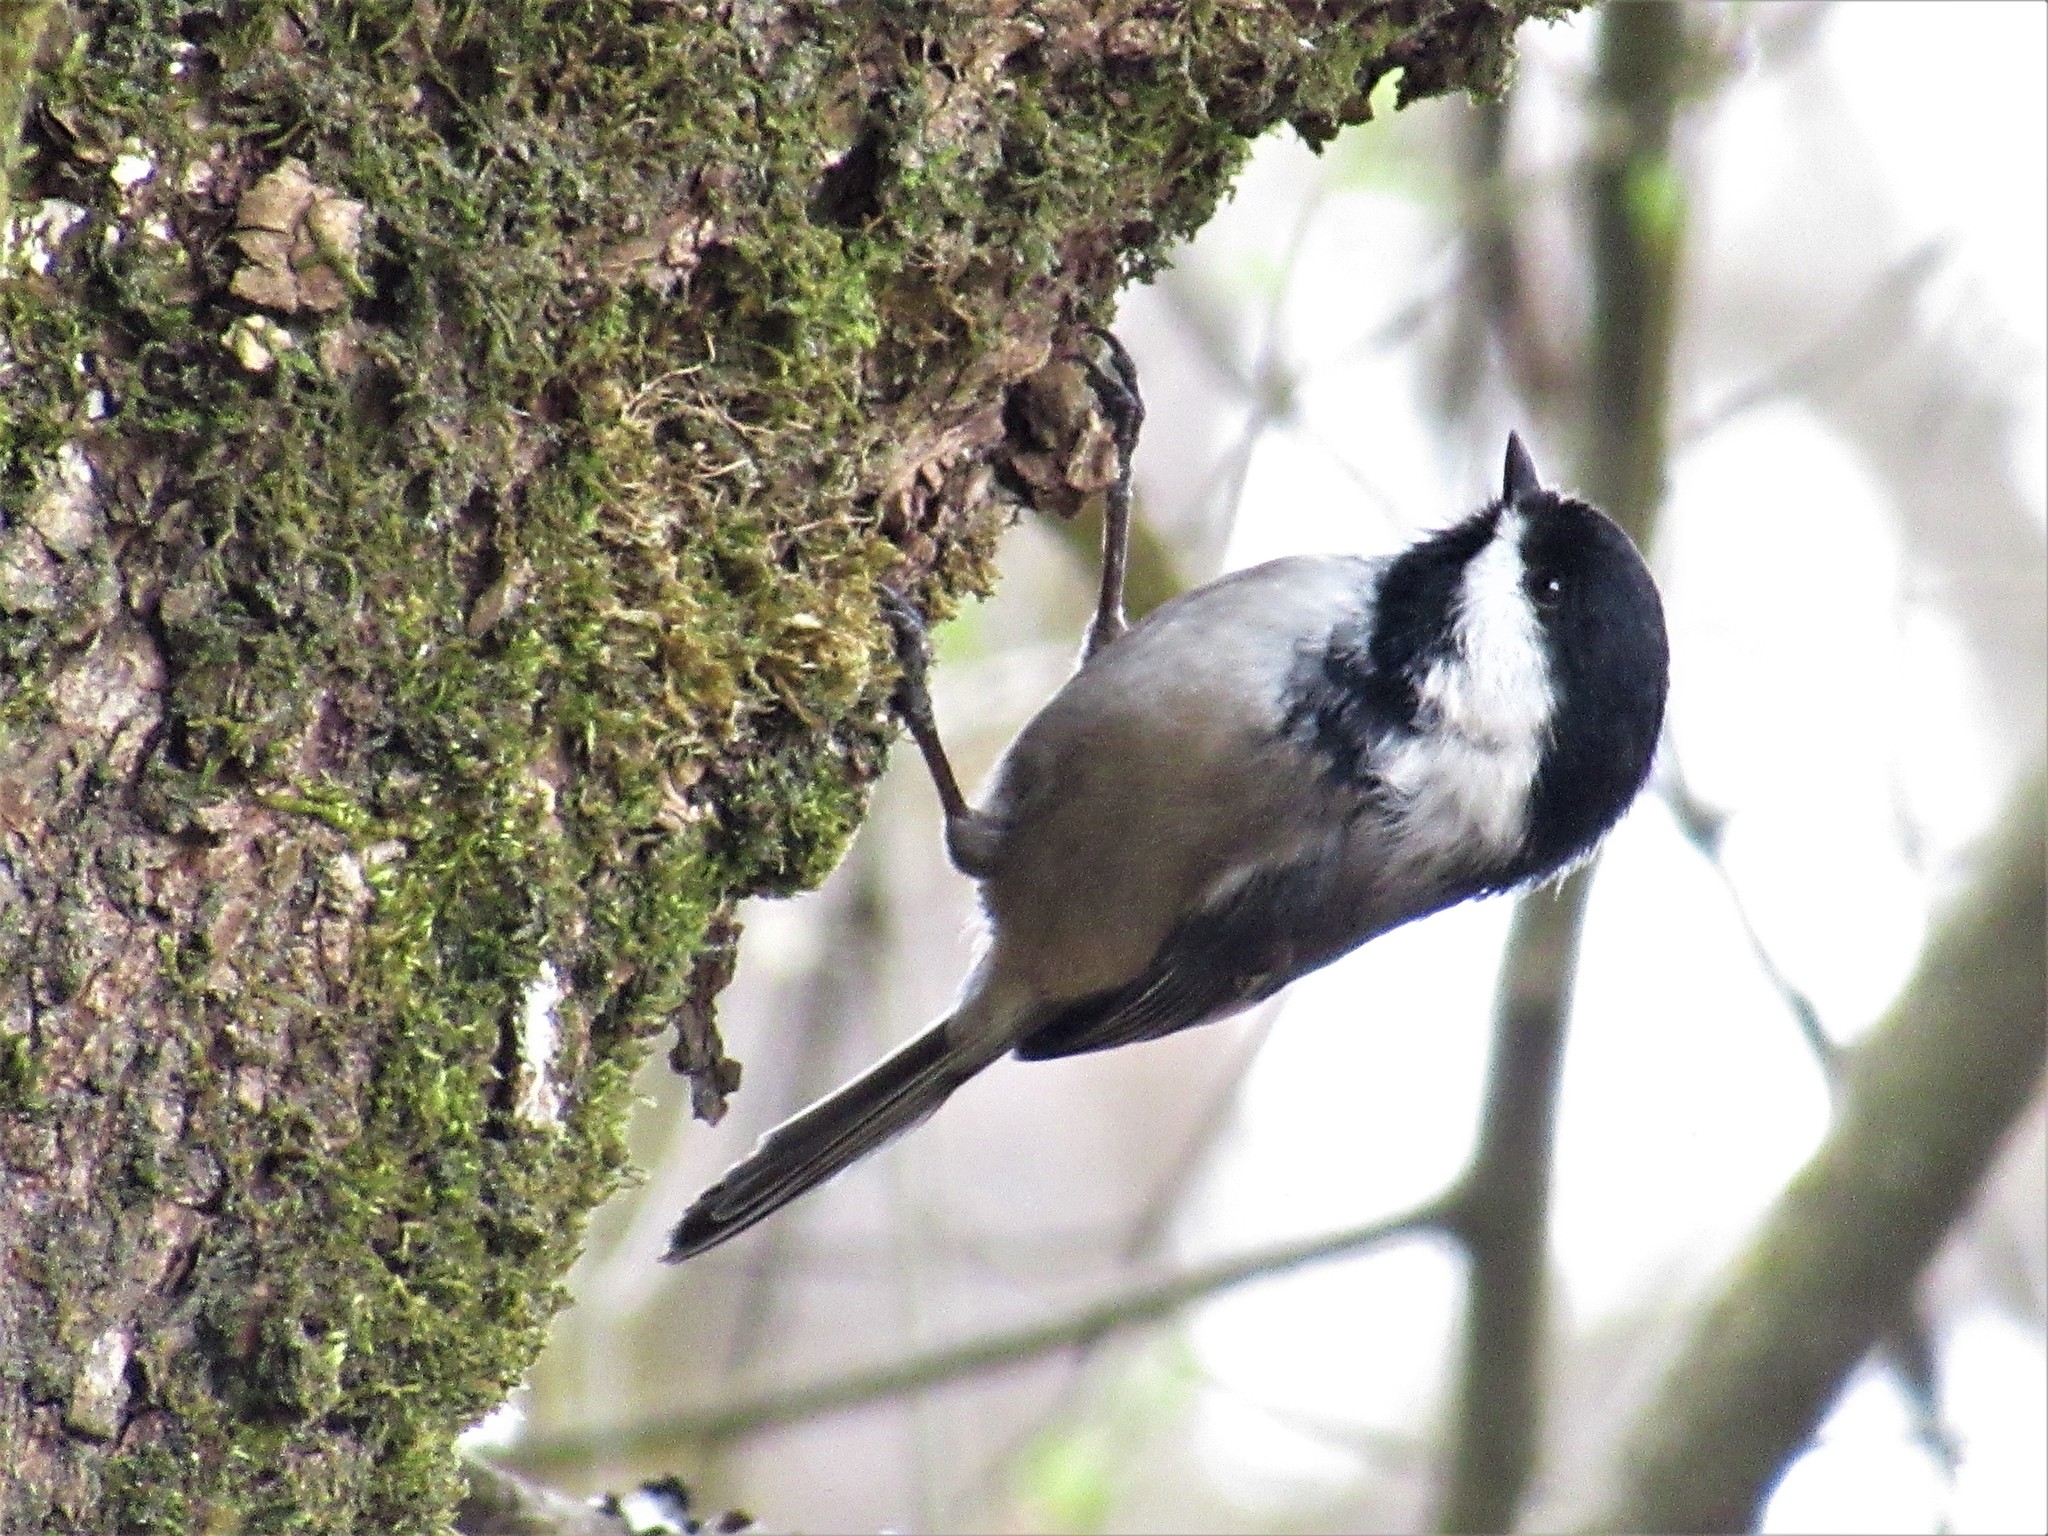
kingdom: Animalia
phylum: Chordata
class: Aves
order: Passeriformes
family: Paridae
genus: Poecile
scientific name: Poecile atricapillus
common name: Black-capped chickadee
